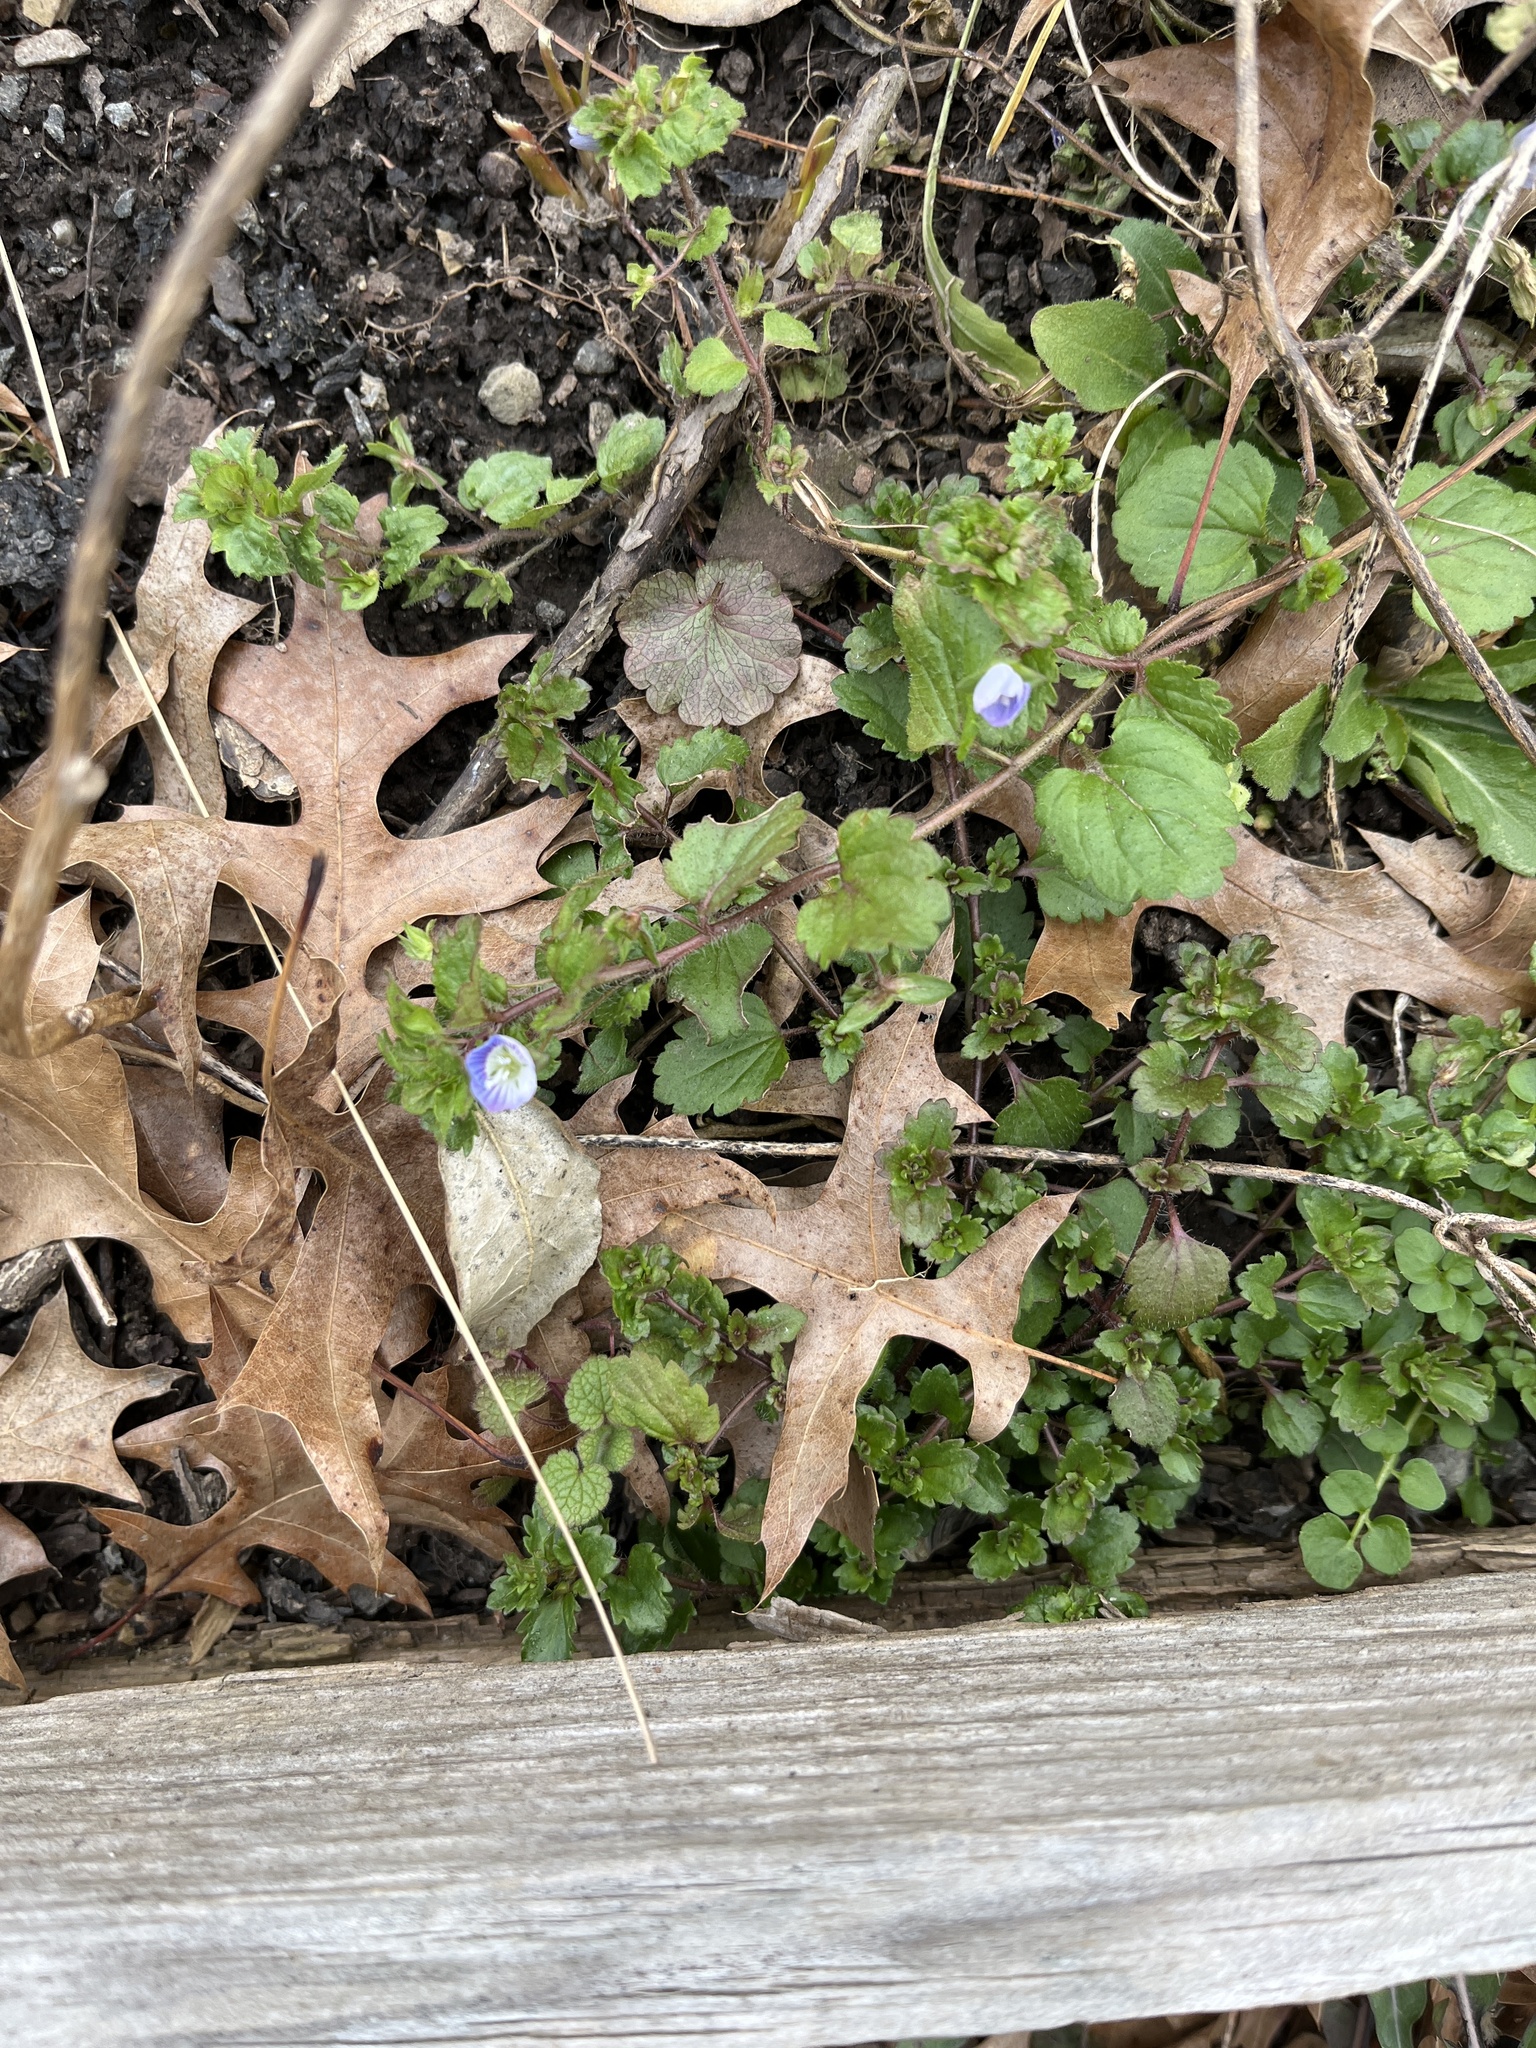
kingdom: Plantae
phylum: Tracheophyta
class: Magnoliopsida
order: Lamiales
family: Plantaginaceae
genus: Veronica
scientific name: Veronica persica
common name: Common field-speedwell
